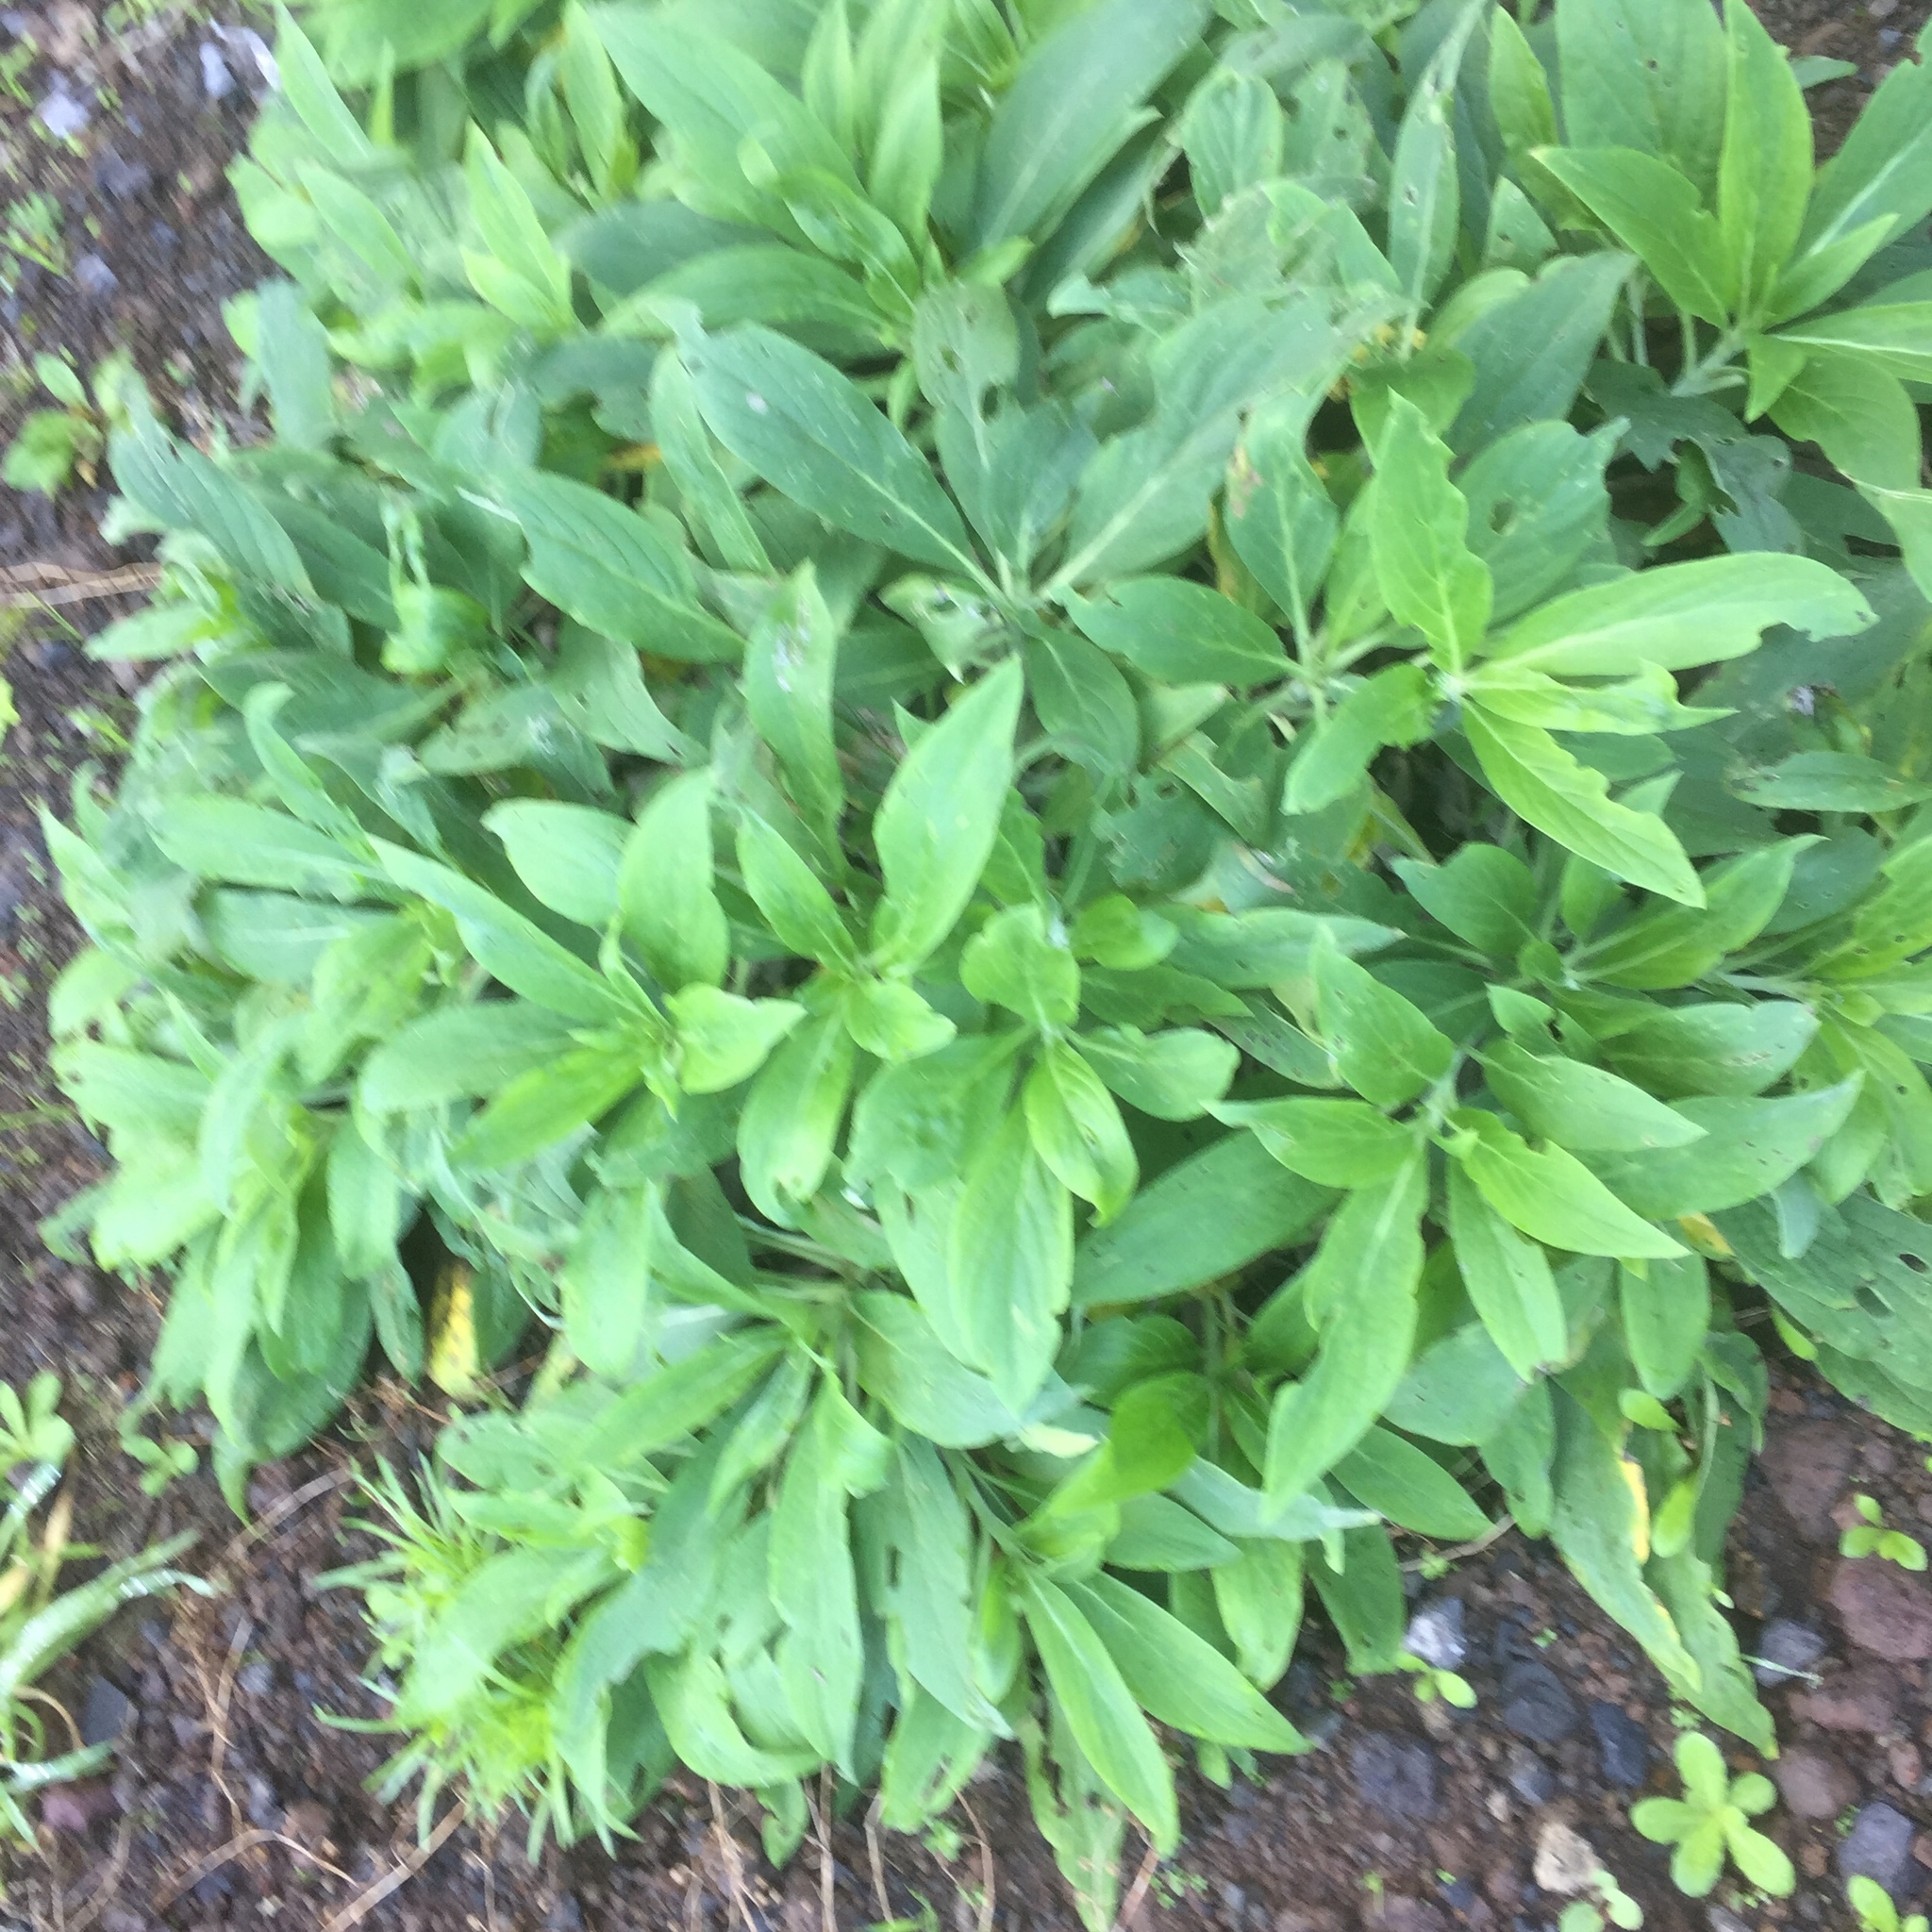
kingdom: Plantae
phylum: Tracheophyta
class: Magnoliopsida
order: Boraginales
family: Boraginaceae
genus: Echium
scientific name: Echium nervosum
